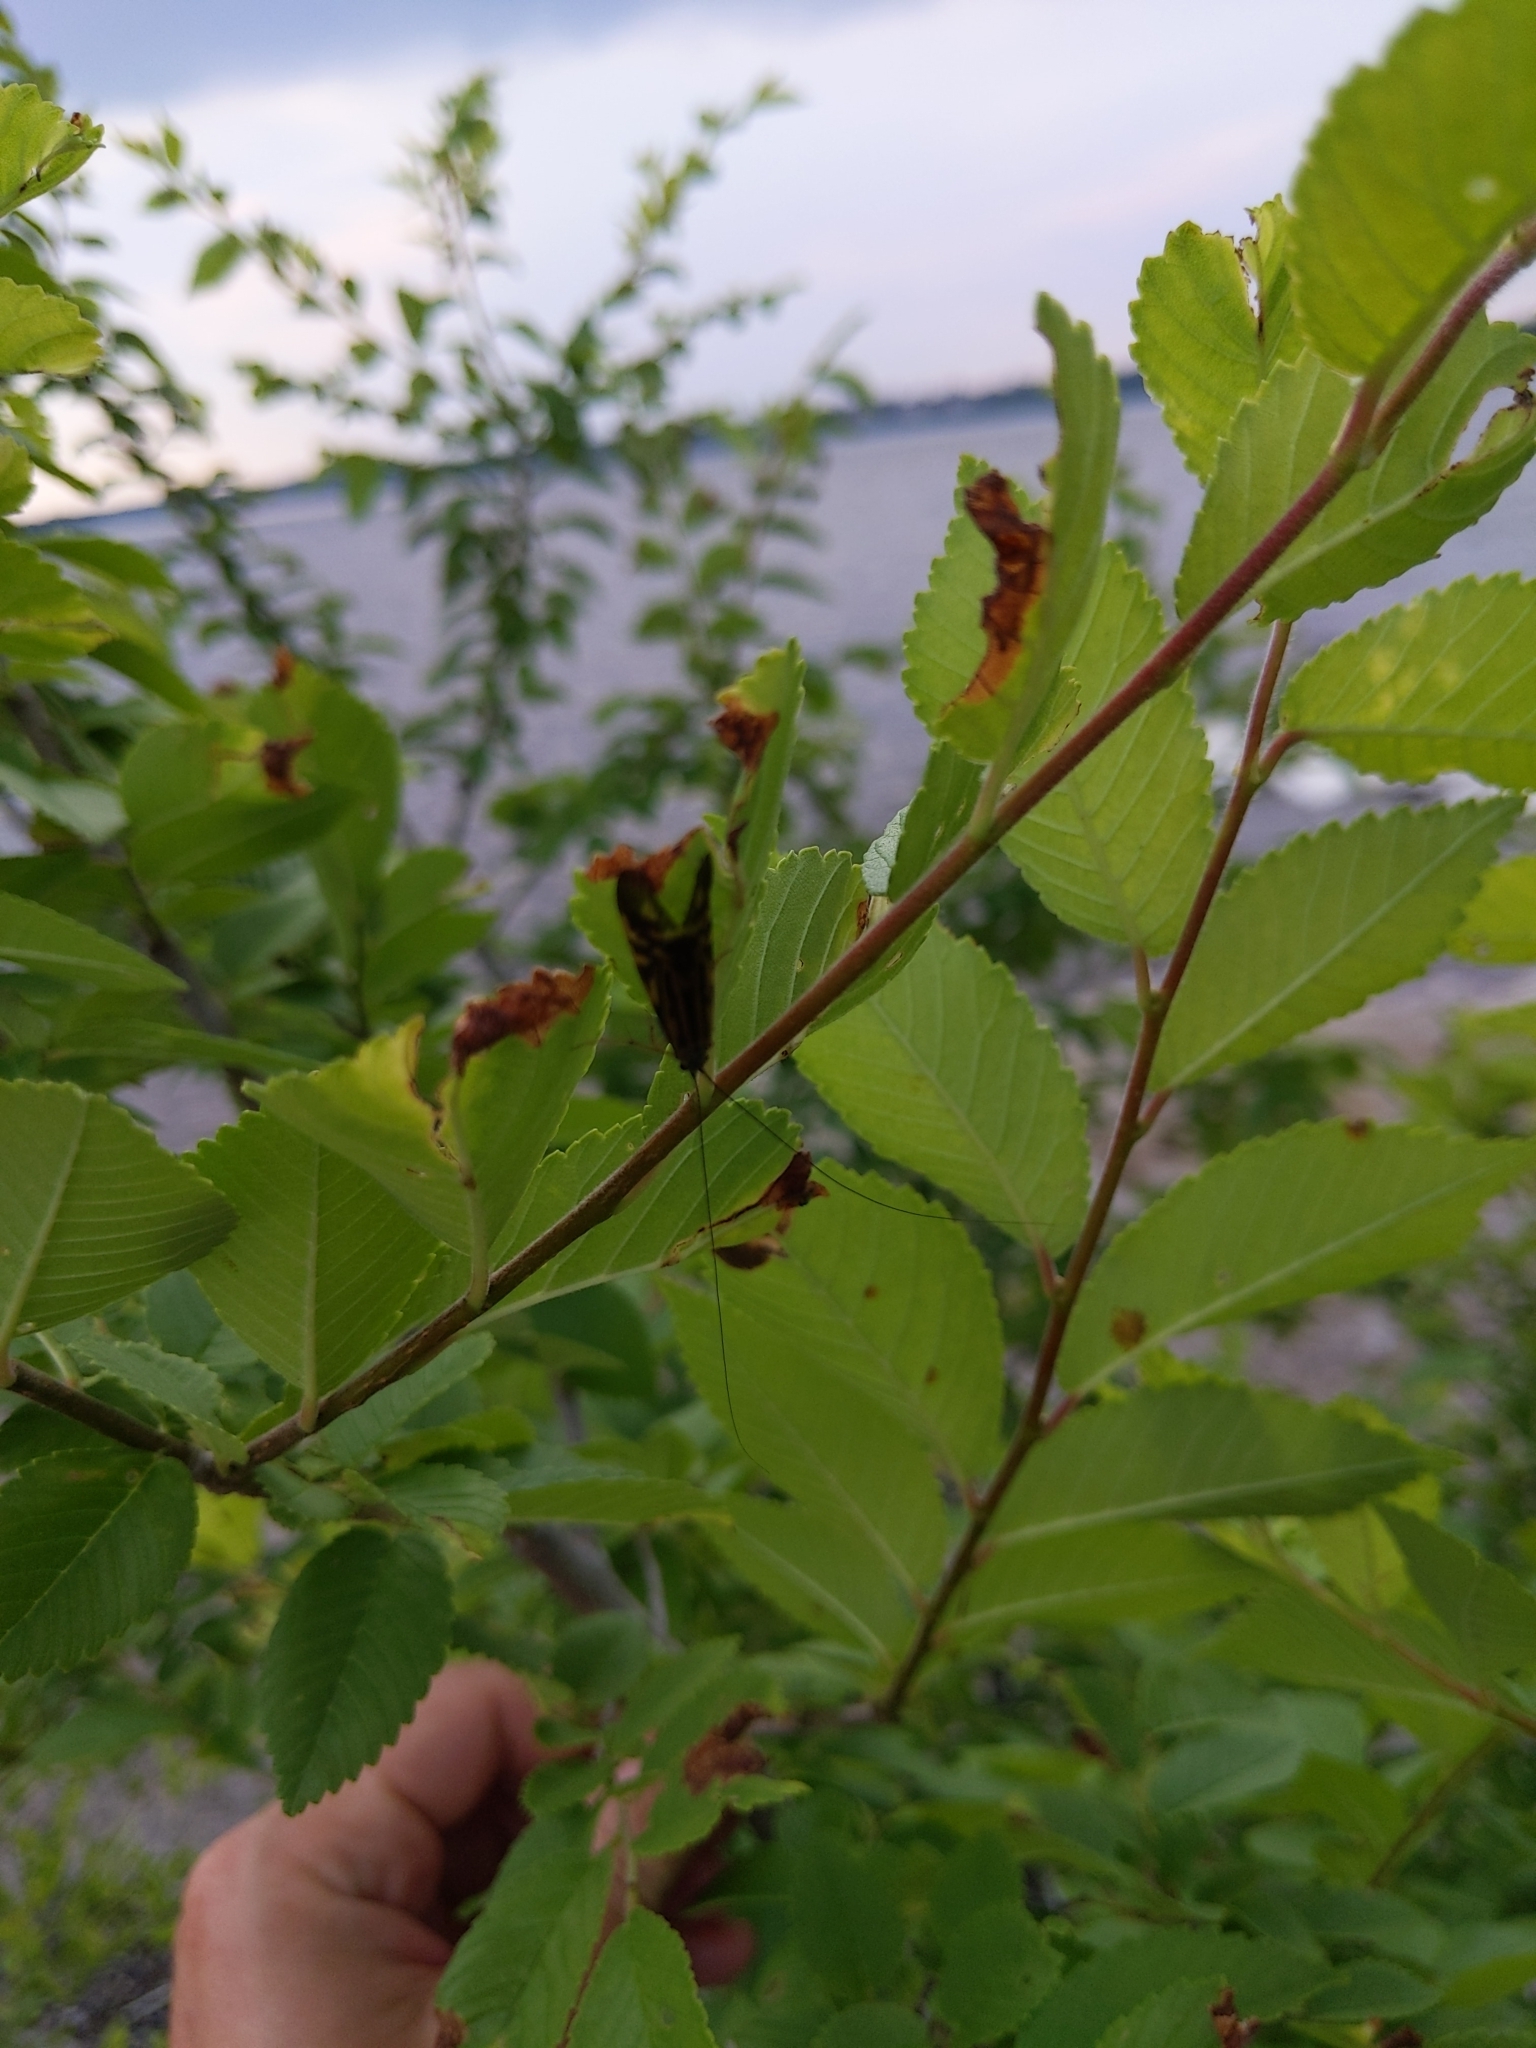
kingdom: Animalia
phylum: Arthropoda
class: Insecta
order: Trichoptera
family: Hydropsychidae
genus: Macrostemum
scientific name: Macrostemum zebratum
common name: Zebra caddisfly
